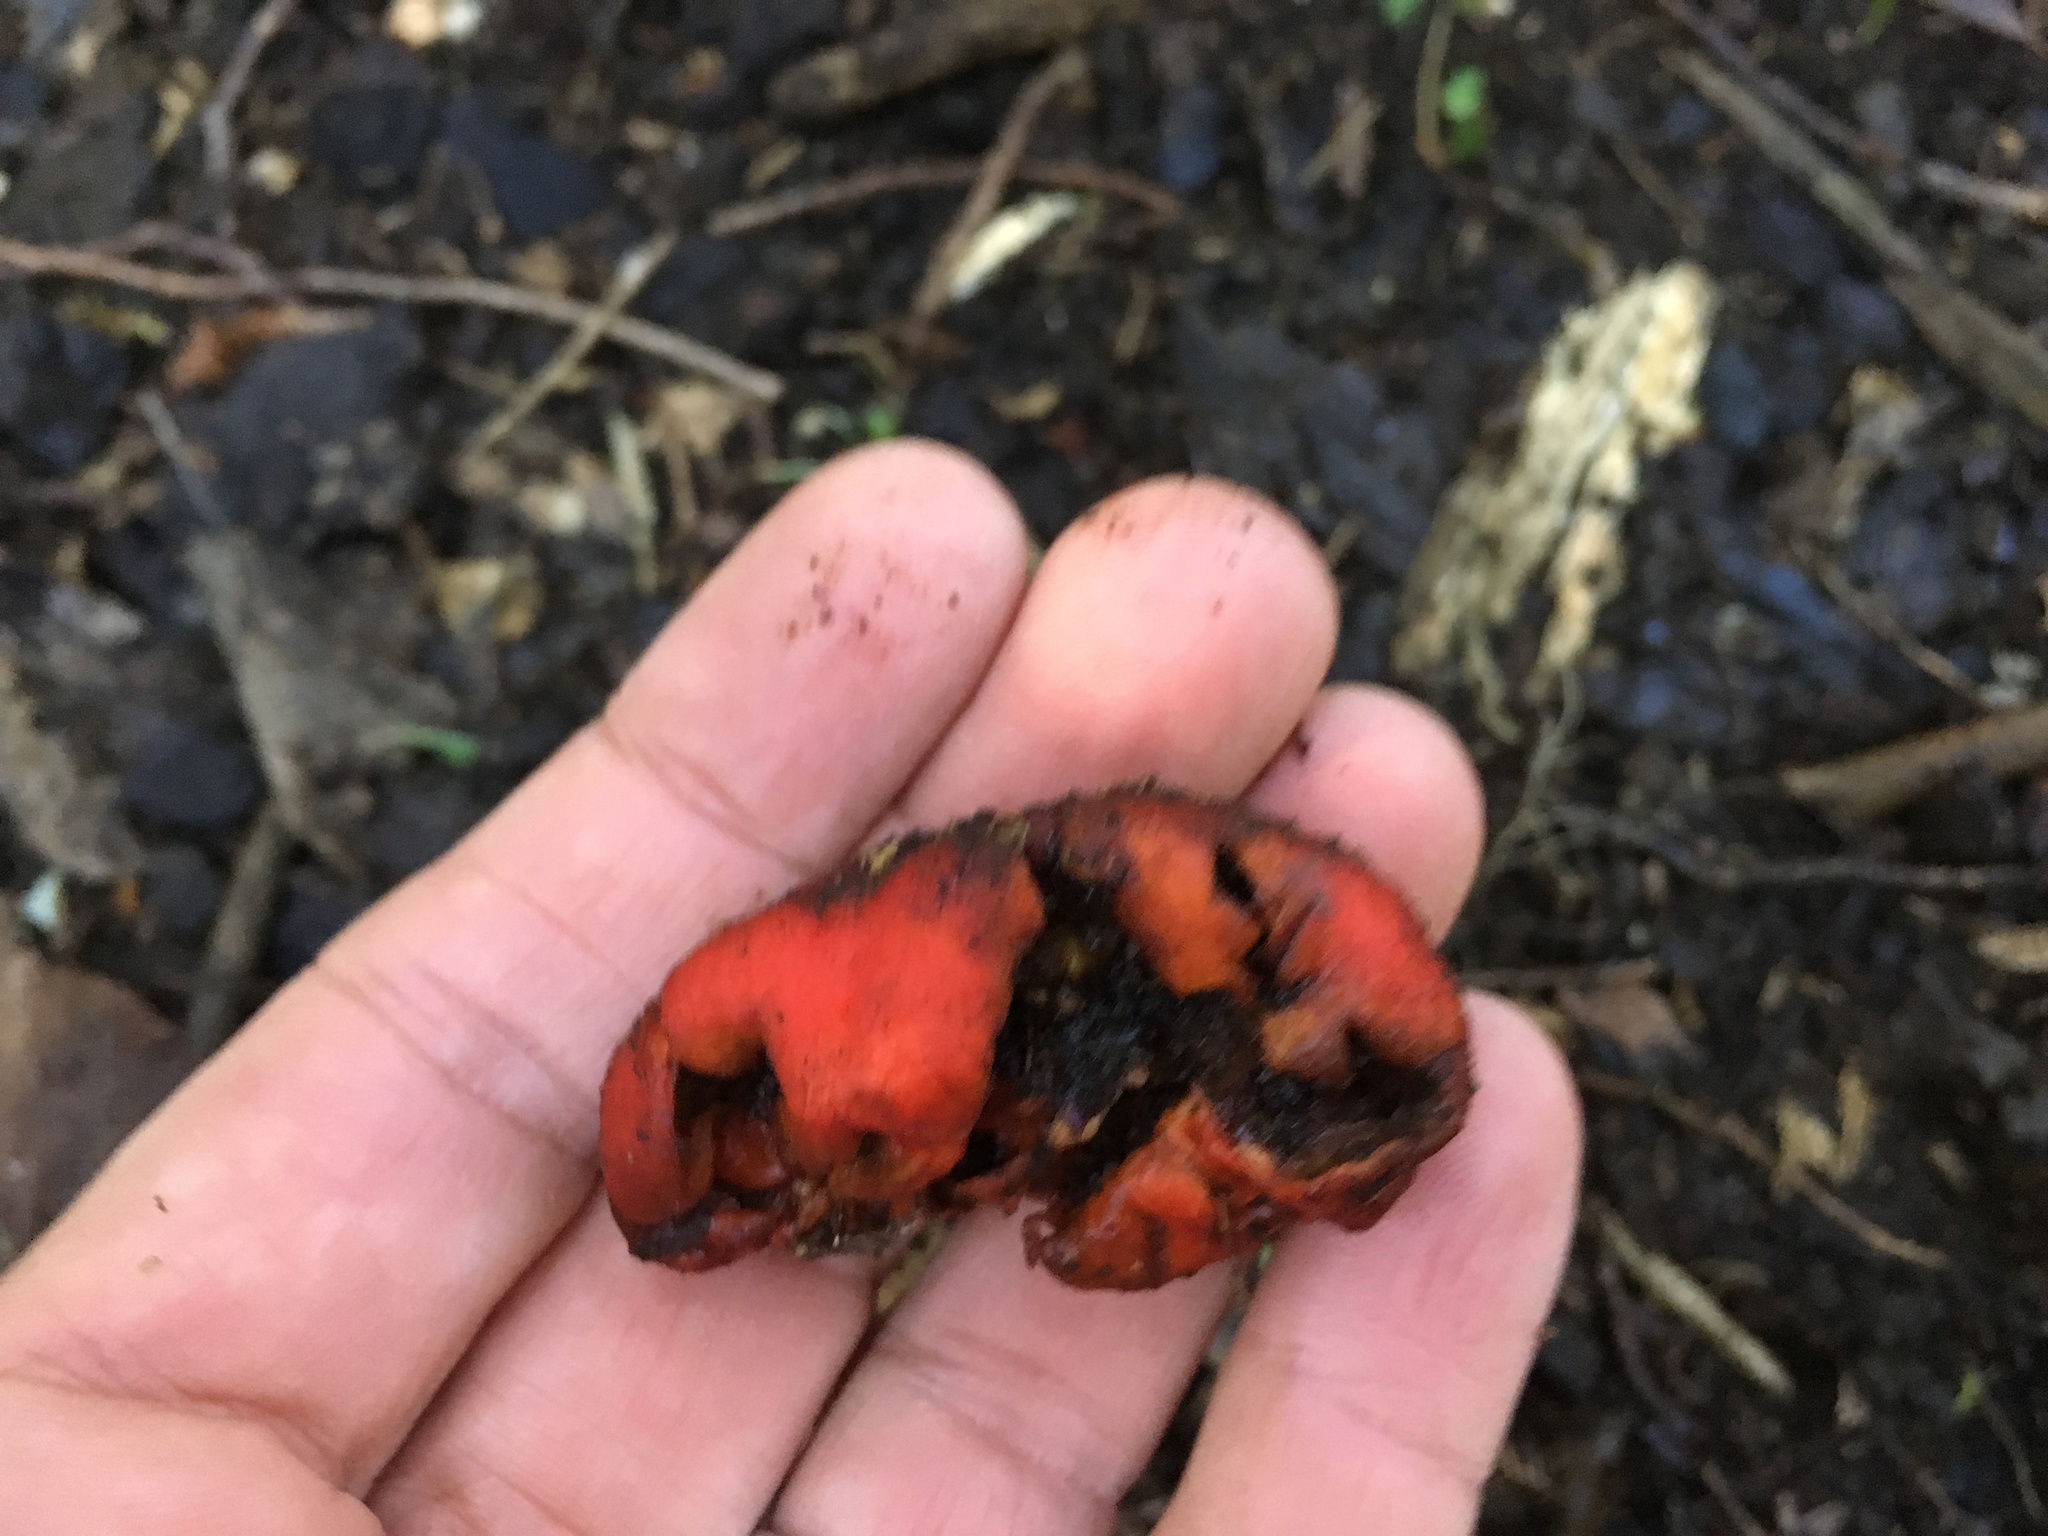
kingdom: Fungi
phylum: Basidiomycota
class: Agaricomycetes
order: Agaricales
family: Strophariaceae
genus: Leratiomyces
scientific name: Leratiomyces erythrocephalus
